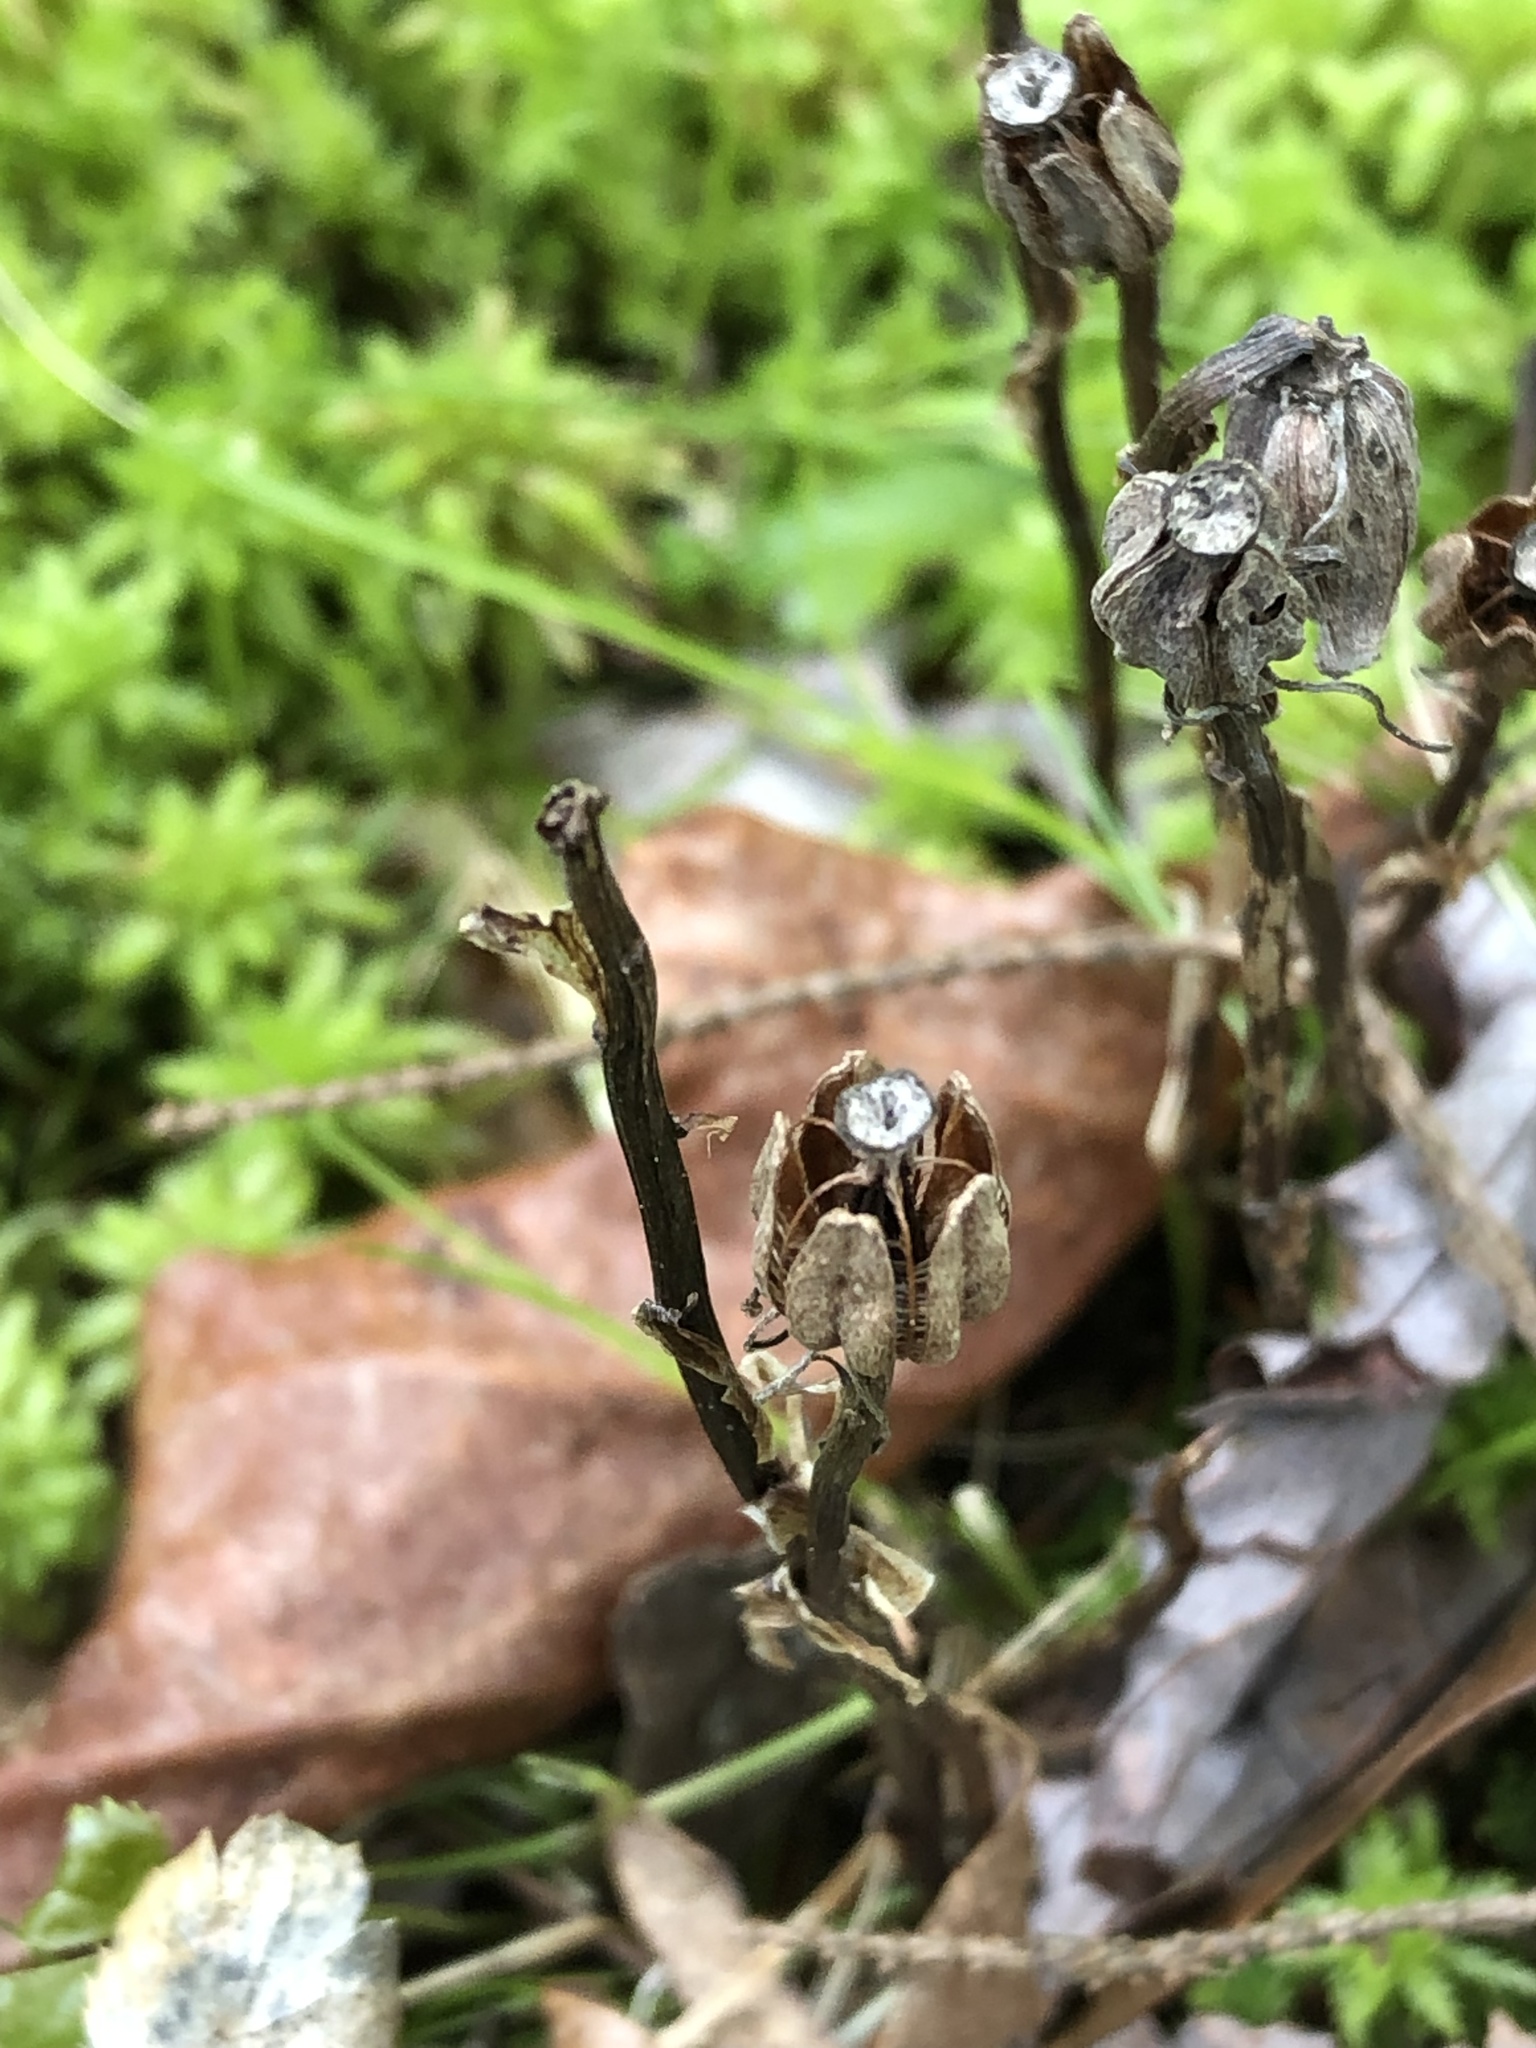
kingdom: Plantae
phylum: Tracheophyta
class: Magnoliopsida
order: Ericales
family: Ericaceae
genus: Monotropa
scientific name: Monotropa uniflora
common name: Convulsion root
